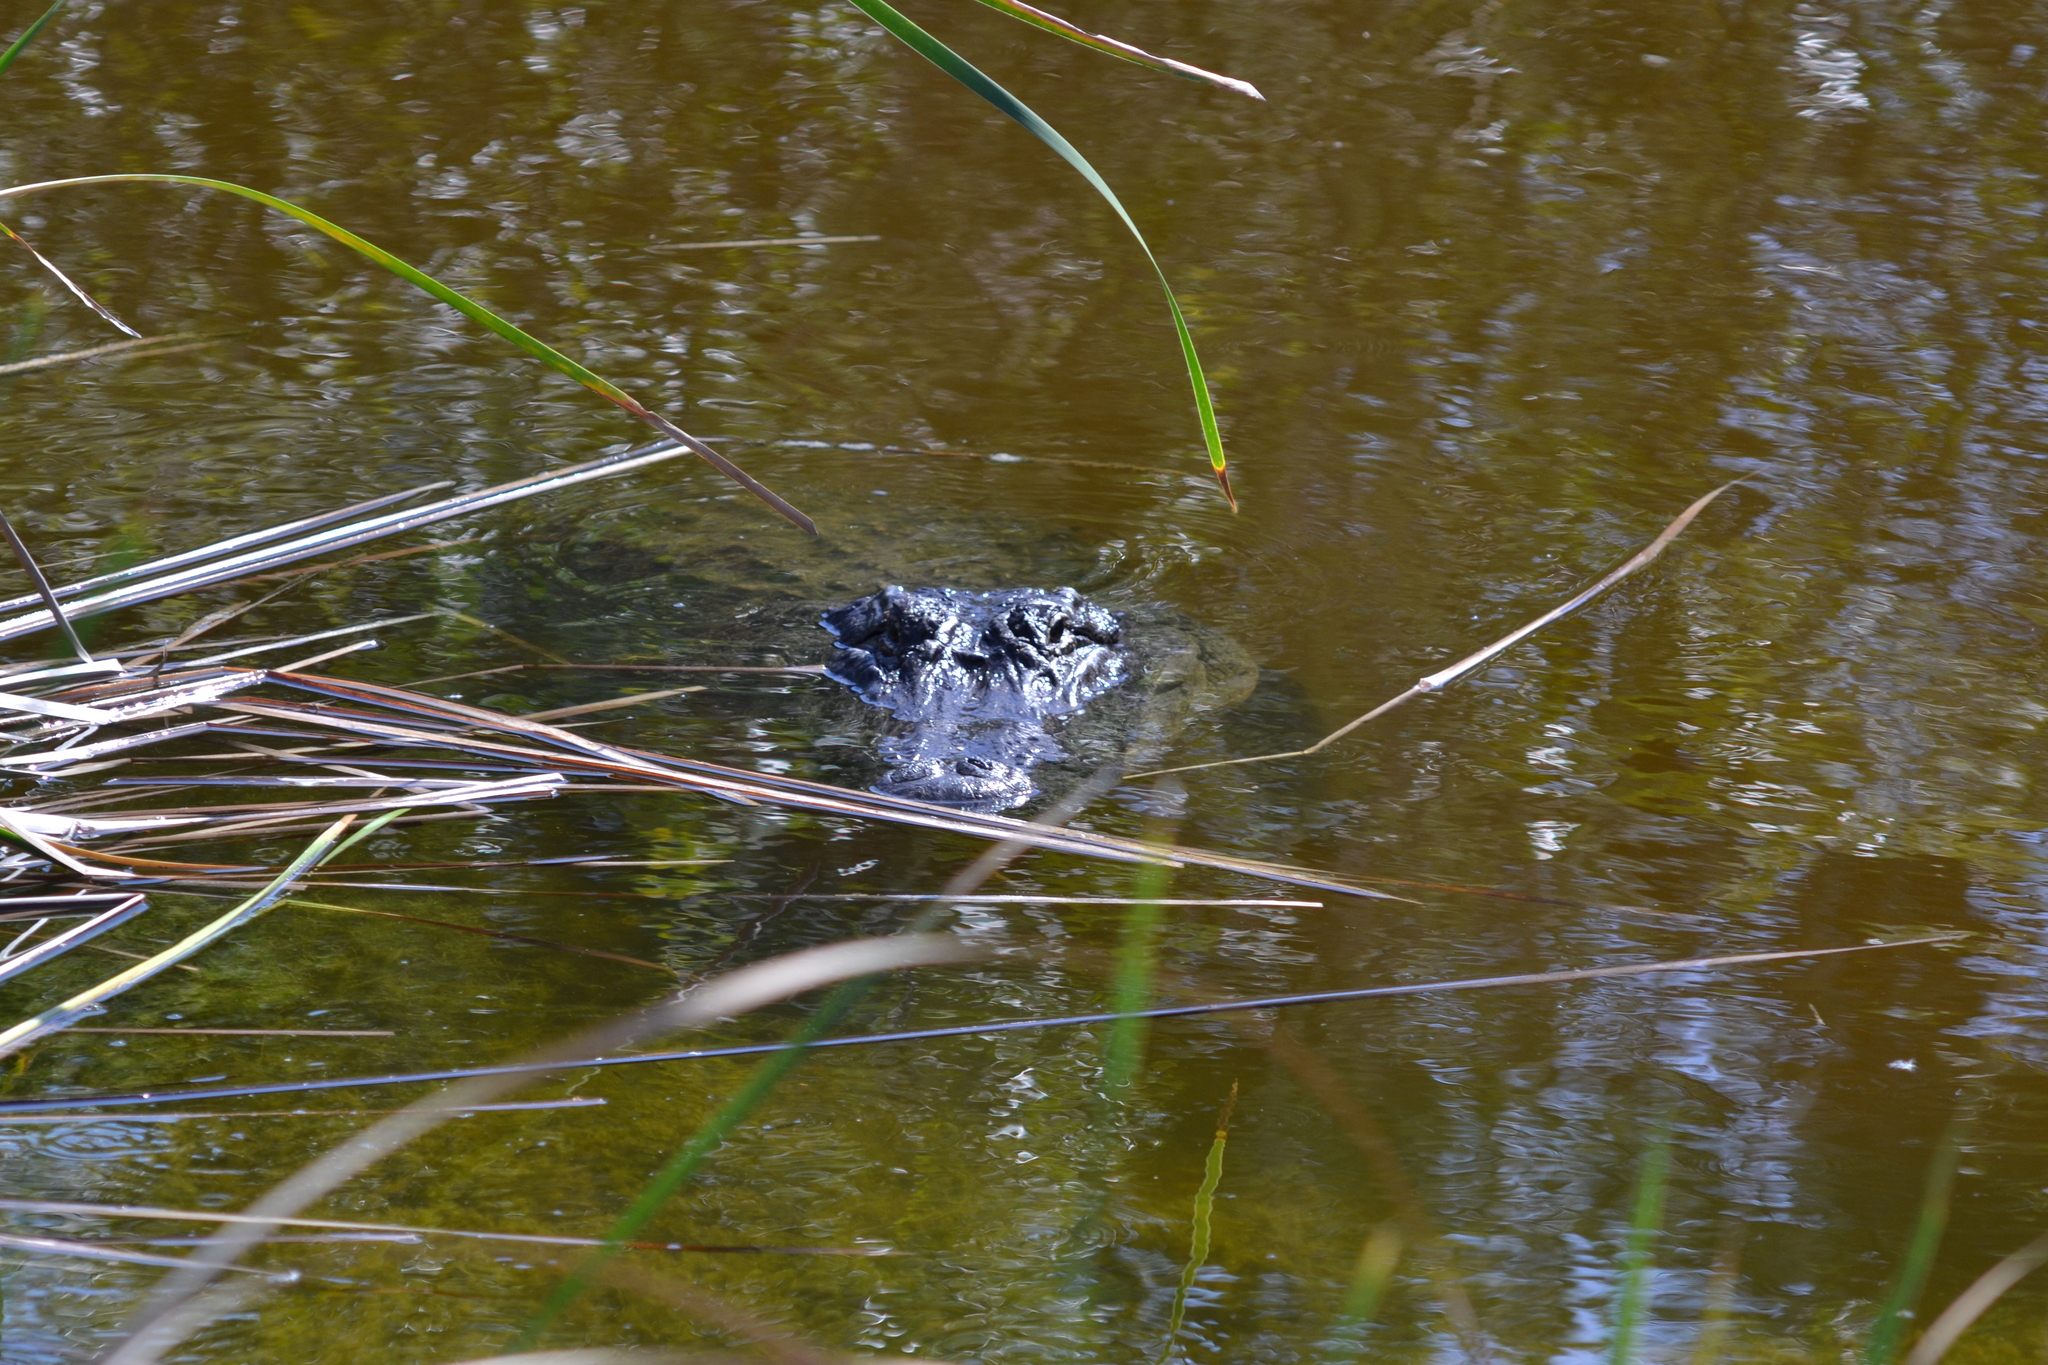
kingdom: Animalia
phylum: Chordata
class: Crocodylia
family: Alligatoridae
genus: Alligator
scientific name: Alligator mississippiensis
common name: American alligator
